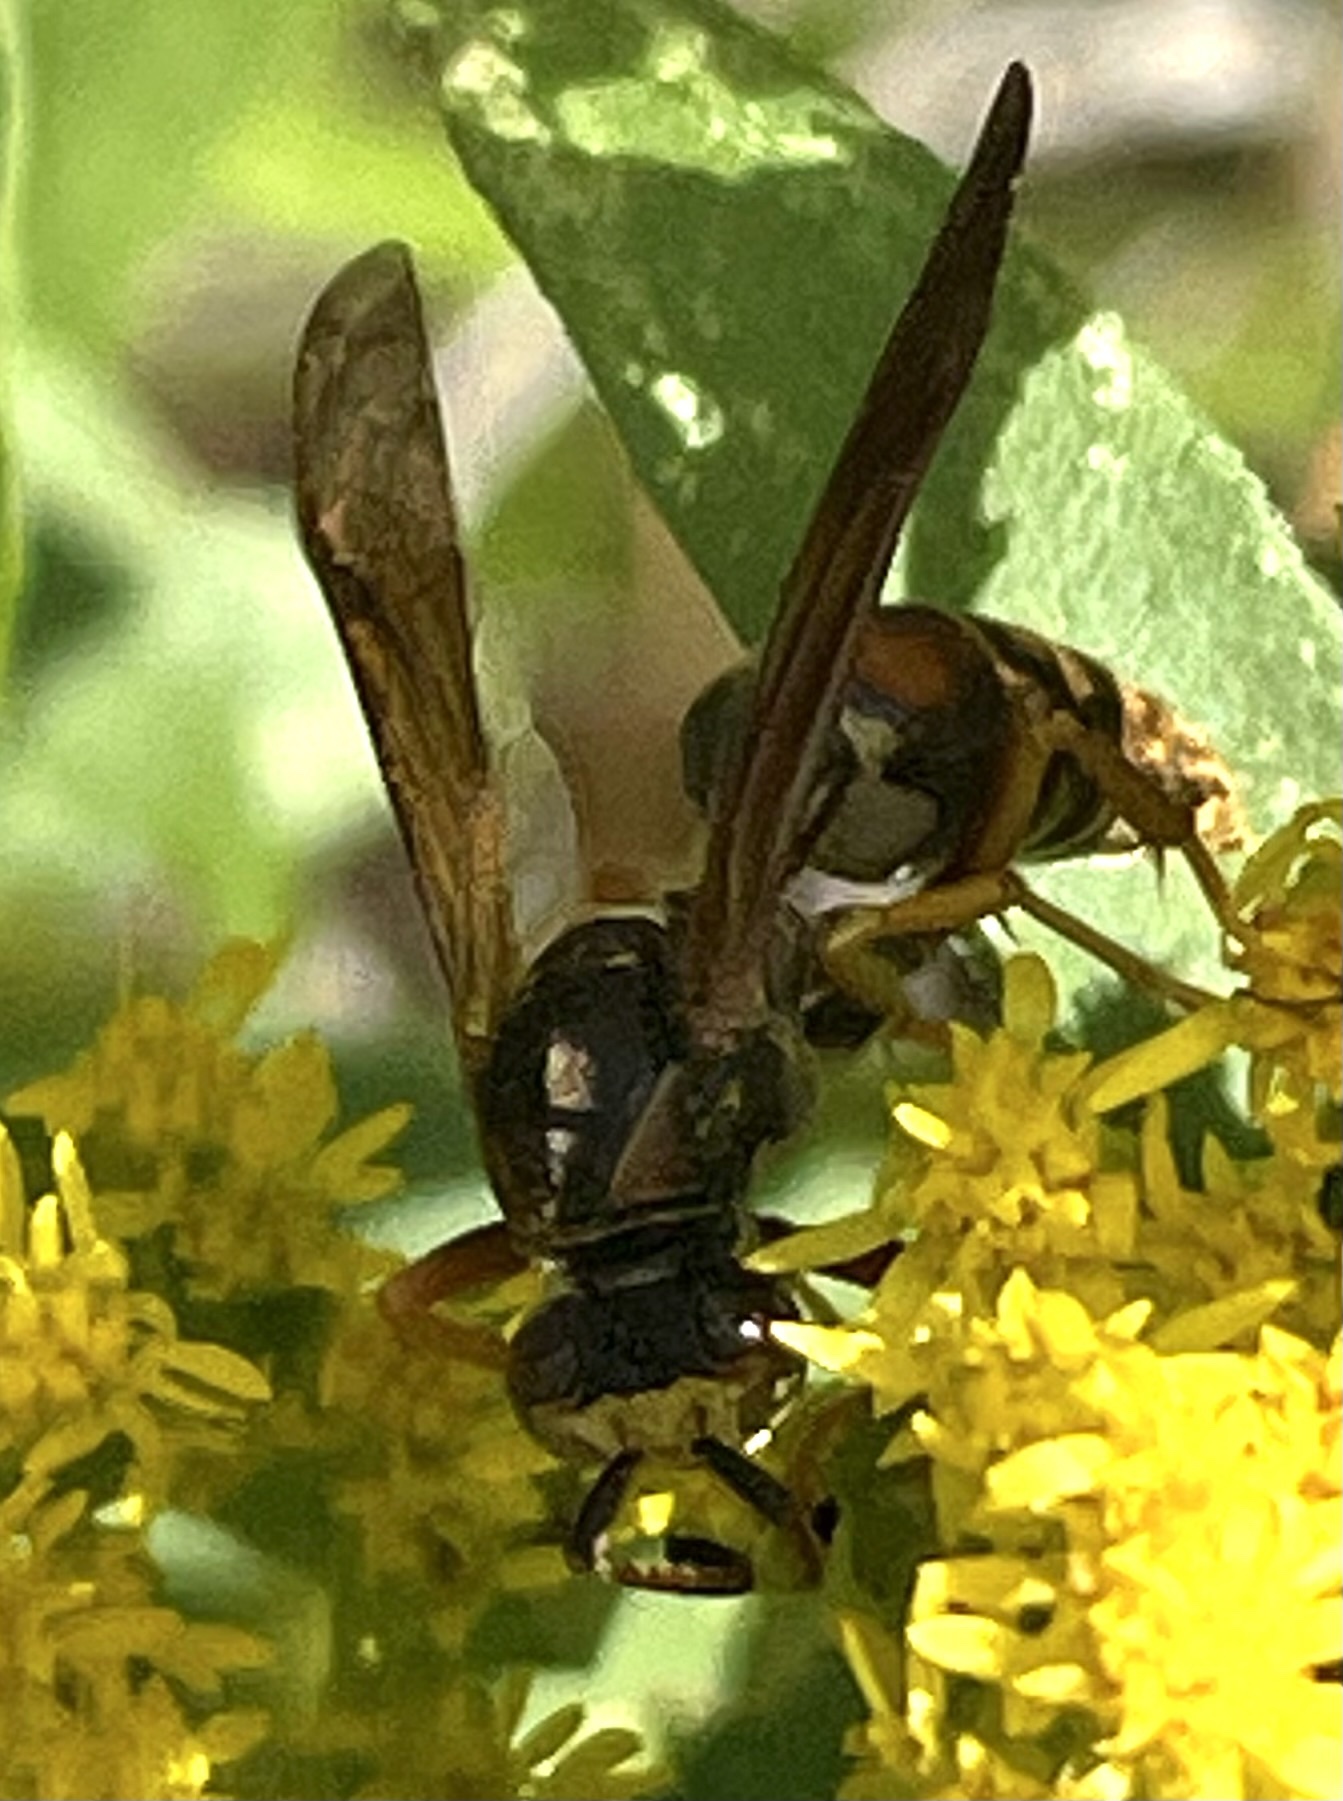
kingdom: Animalia
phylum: Arthropoda
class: Insecta
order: Hymenoptera
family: Eumenidae
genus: Polistes
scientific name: Polistes fuscatus
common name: Dark paper wasp
